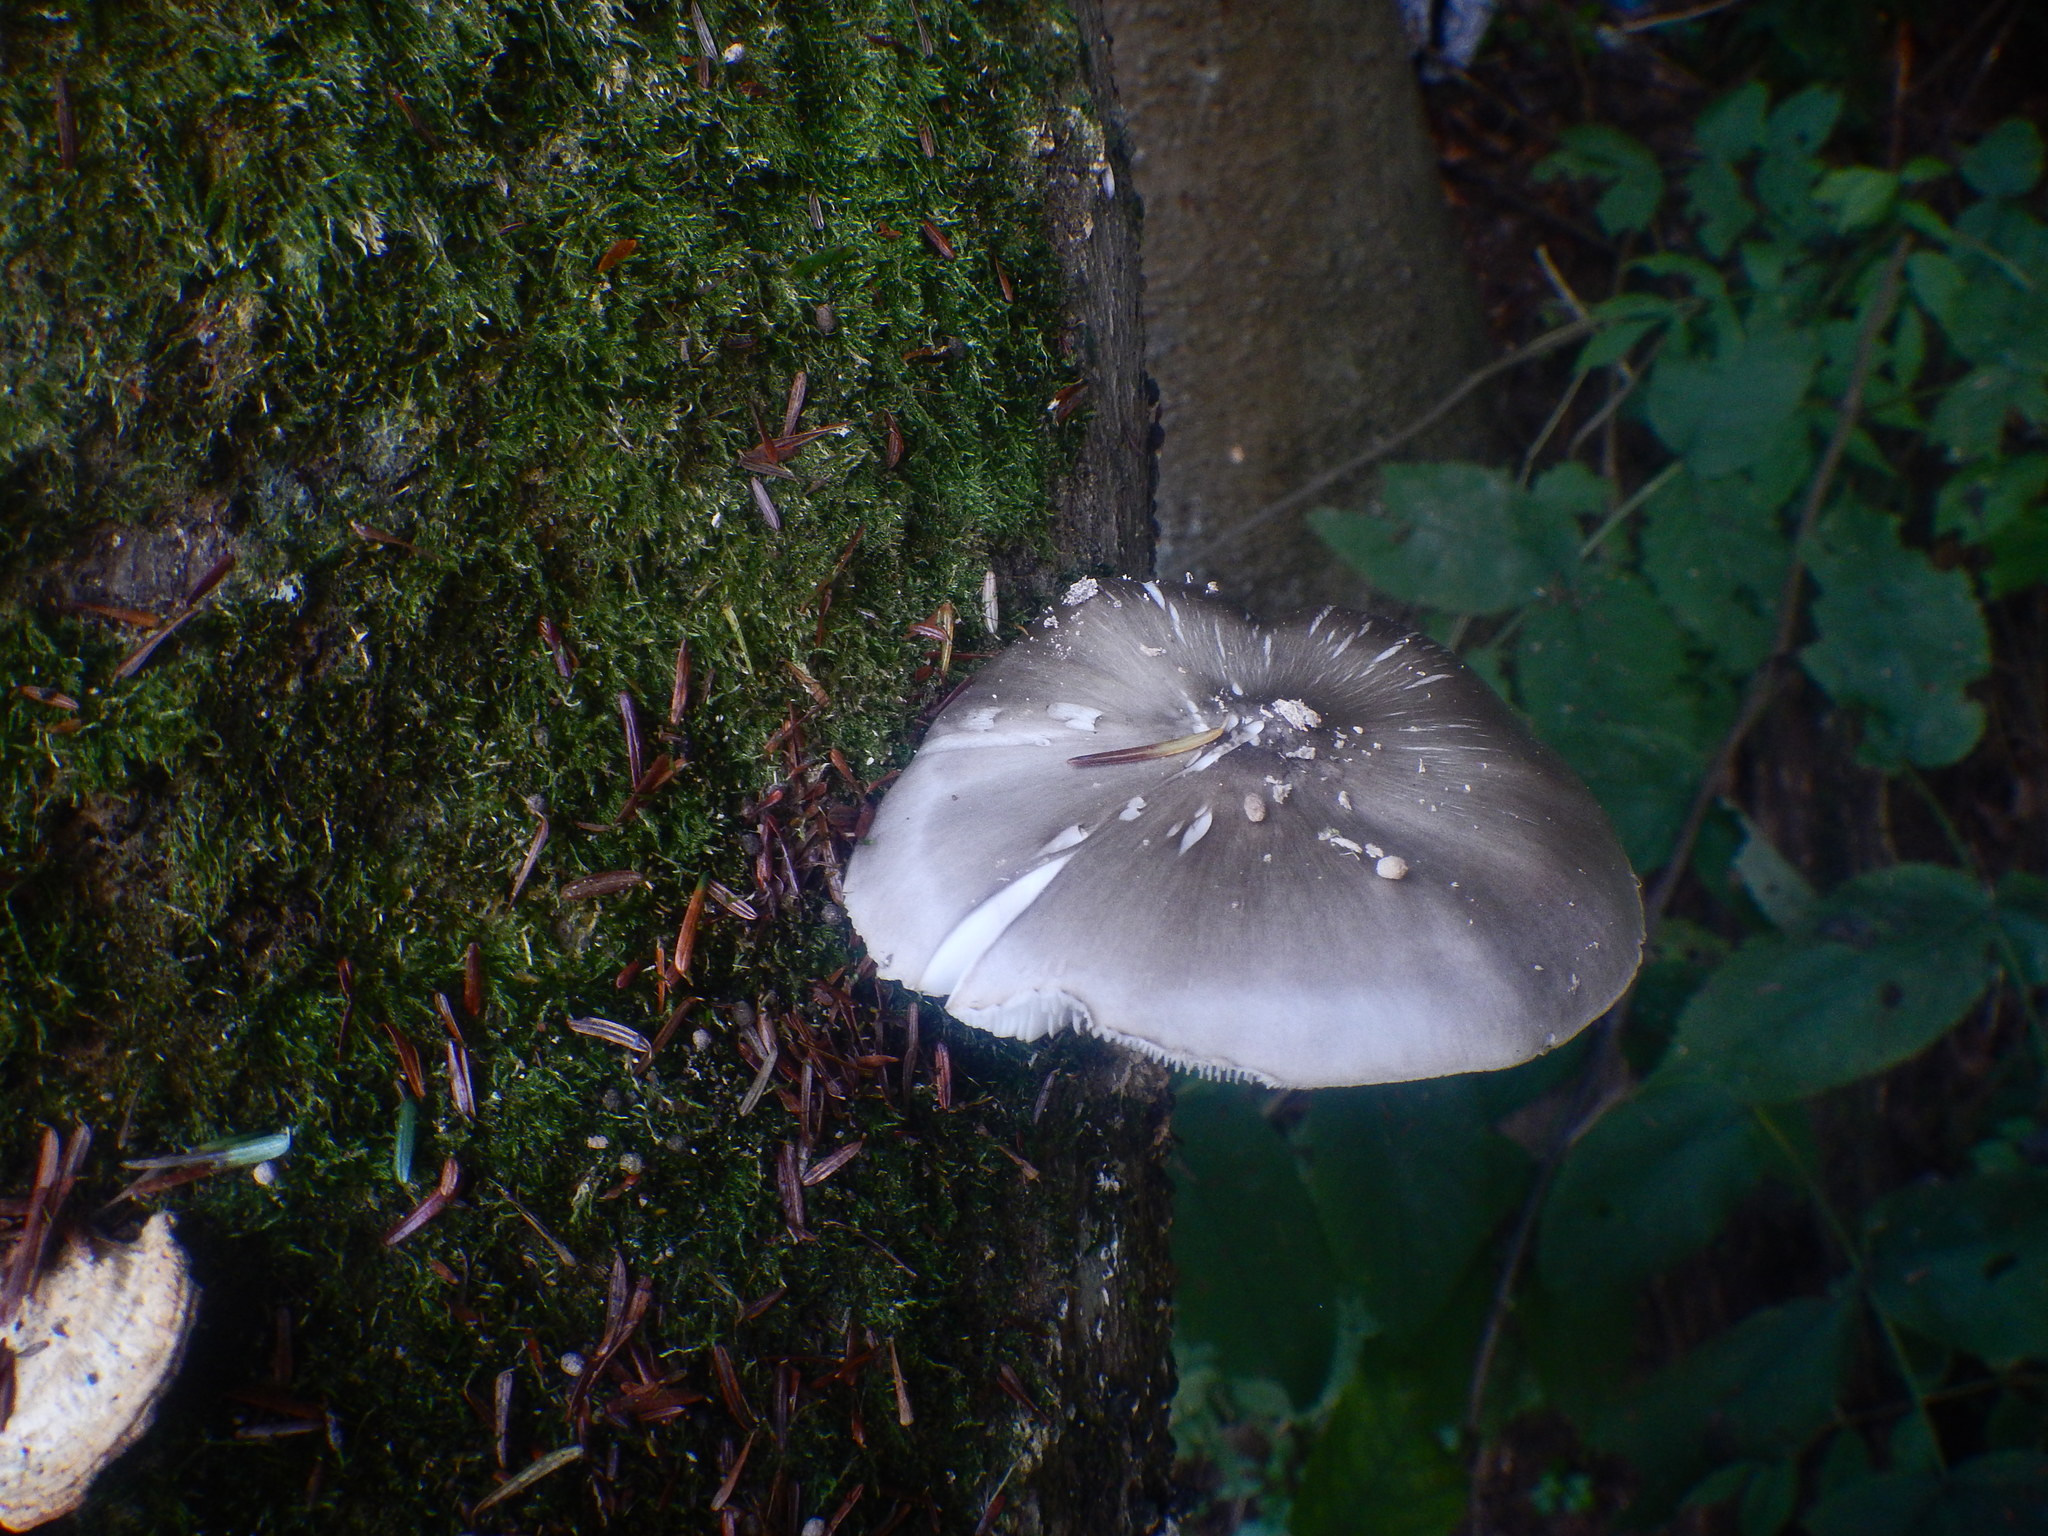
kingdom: Fungi
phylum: Basidiomycota
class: Agaricomycetes
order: Agaricales
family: Pluteaceae
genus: Pluteus
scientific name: Pluteus cervinus
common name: Deer shield
